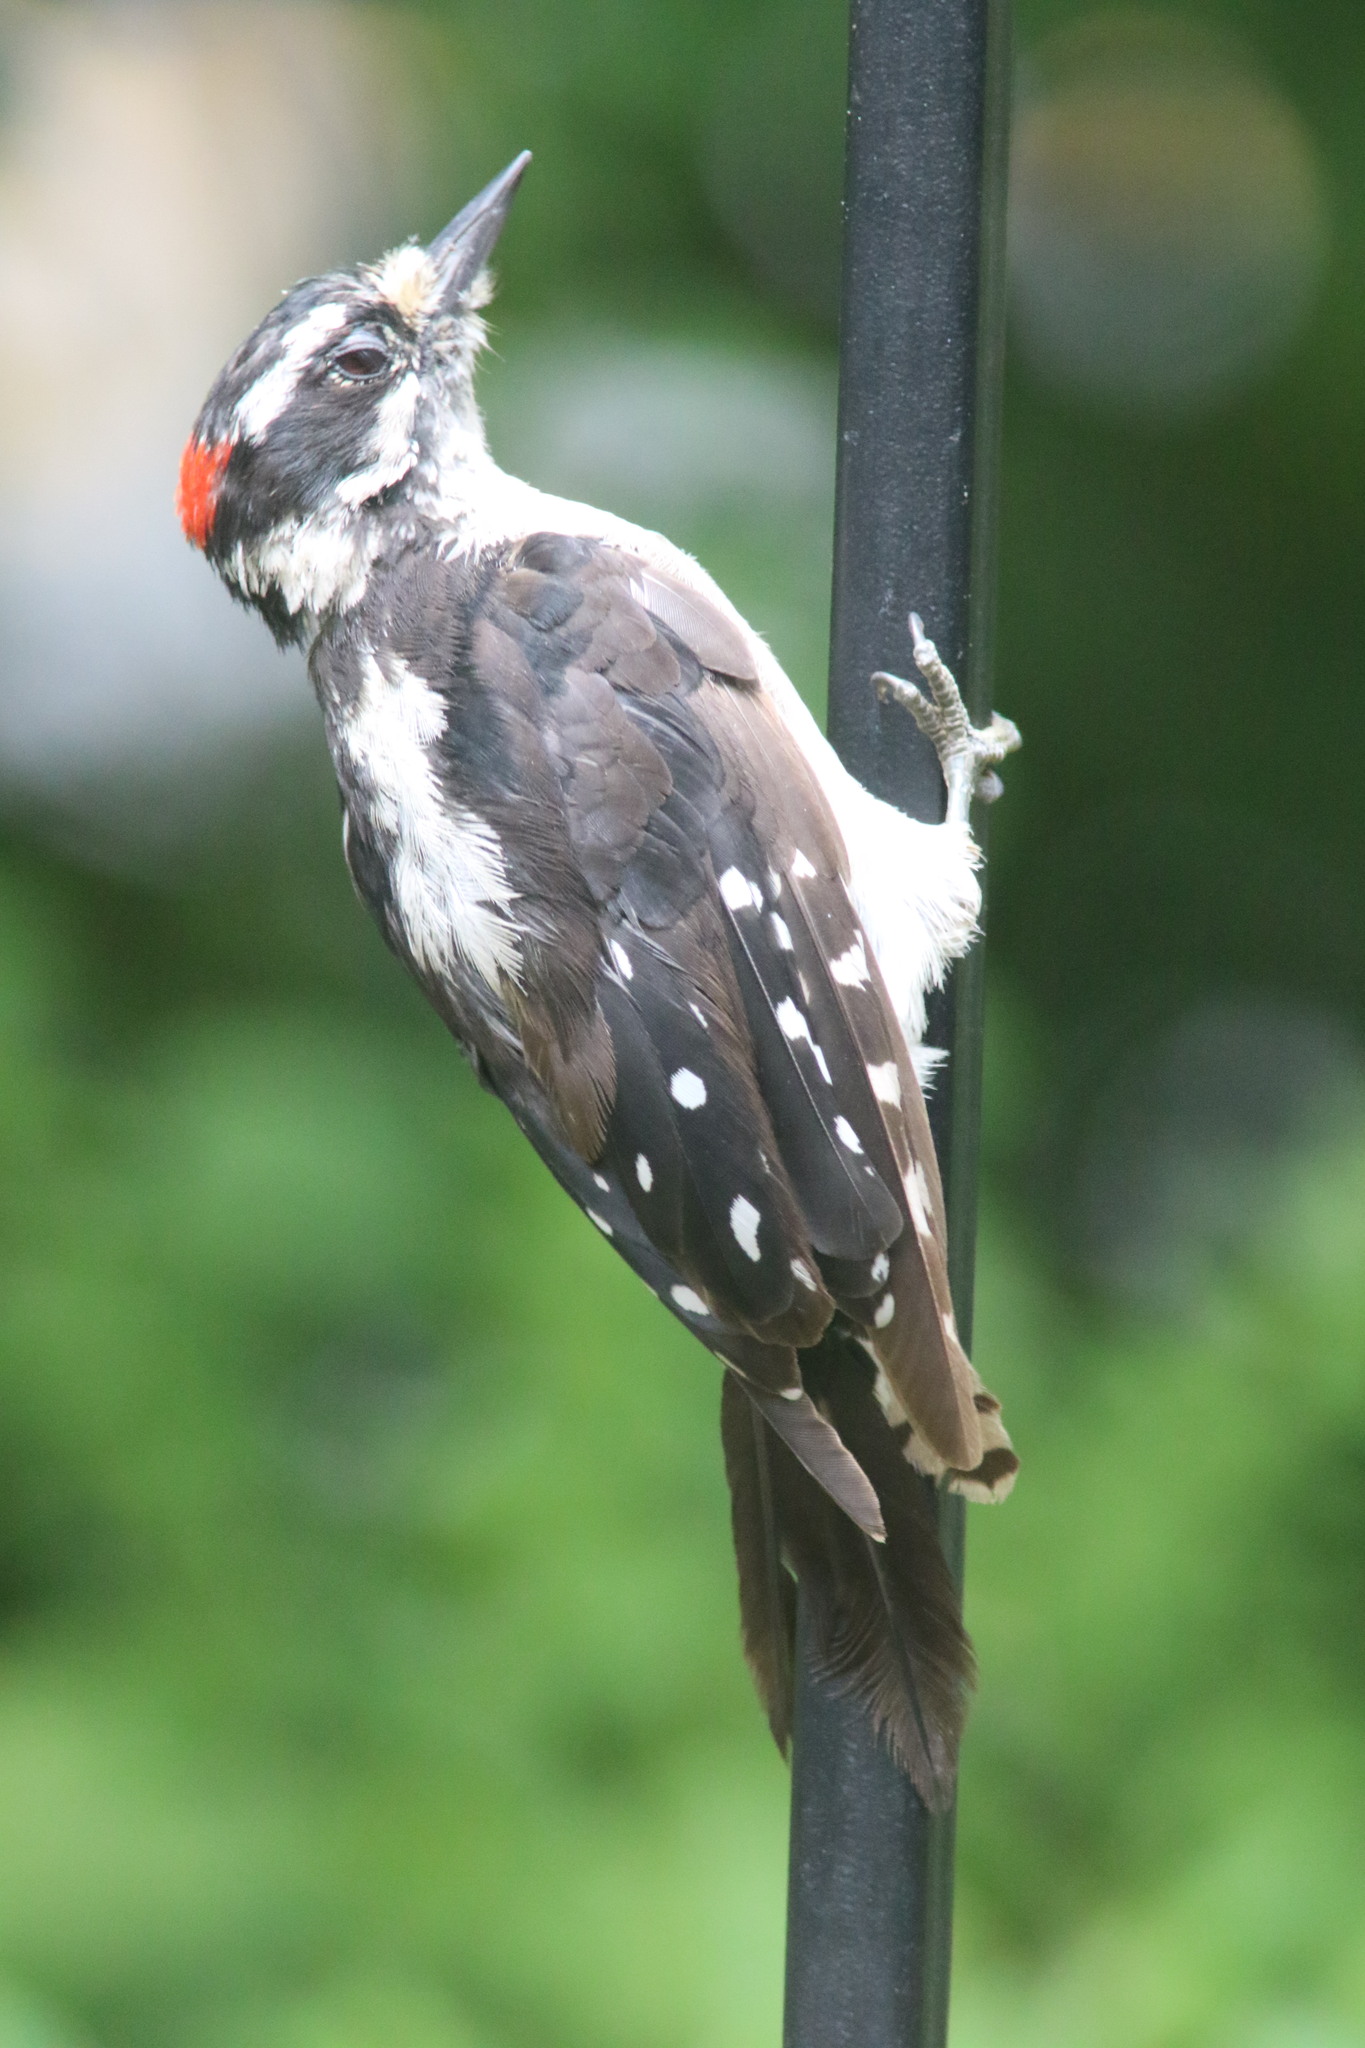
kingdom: Animalia
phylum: Chordata
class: Aves
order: Piciformes
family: Picidae
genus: Dryobates
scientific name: Dryobates pubescens
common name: Downy woodpecker
